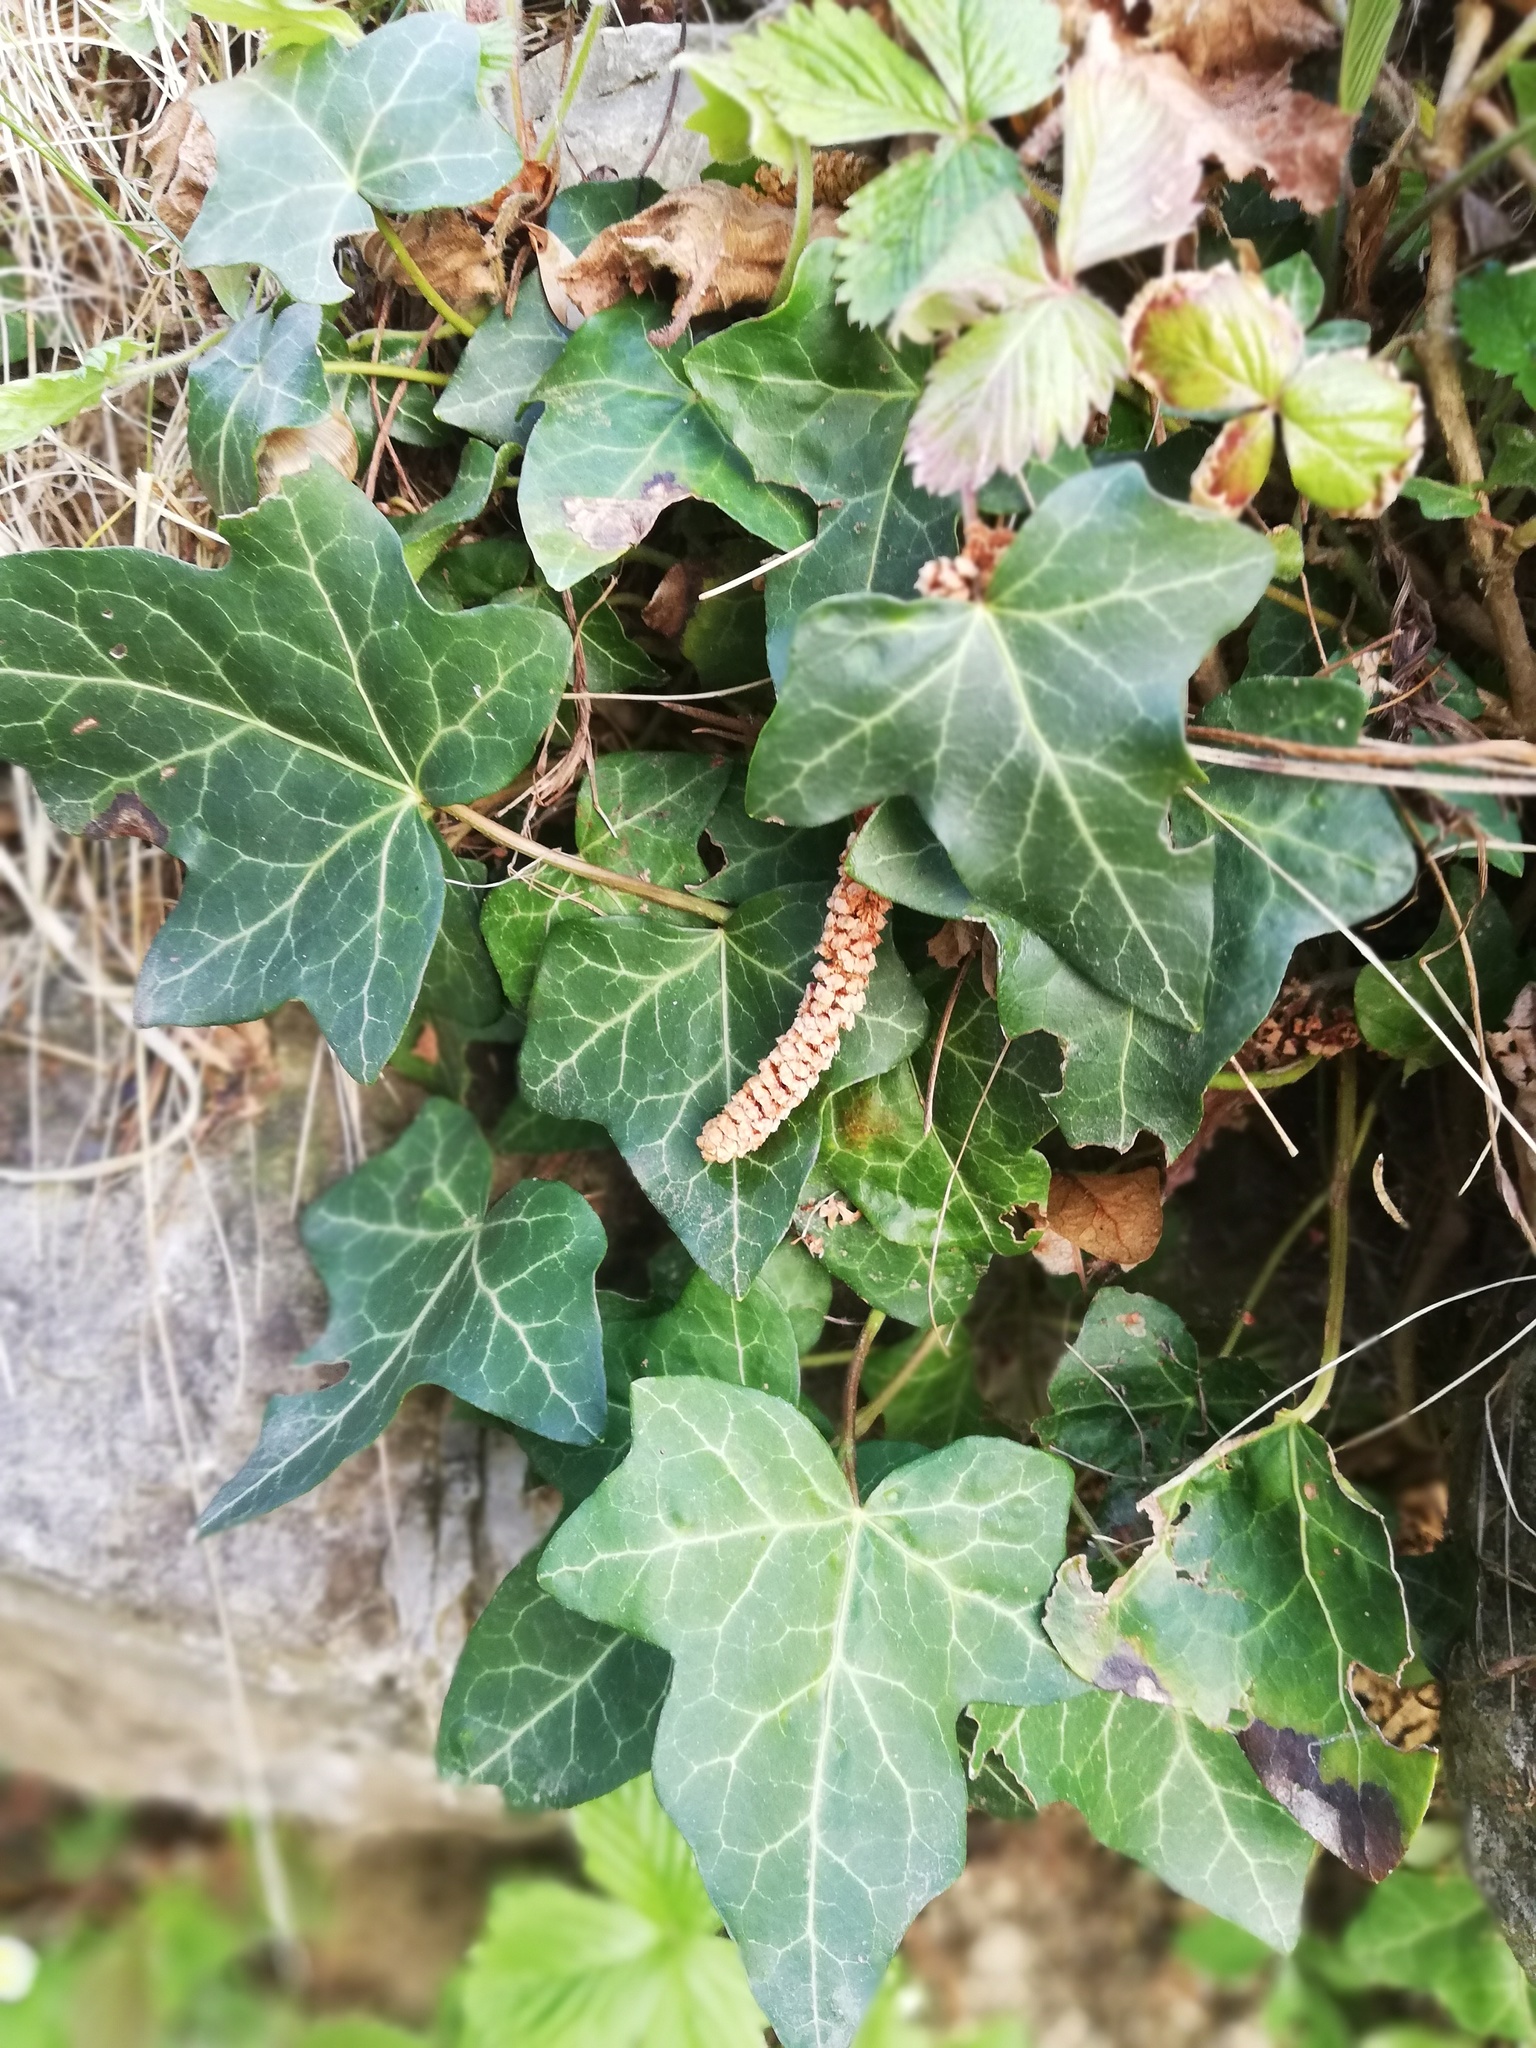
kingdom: Plantae
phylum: Tracheophyta
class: Magnoliopsida
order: Apiales
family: Araliaceae
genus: Hedera
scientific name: Hedera helix
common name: Ivy
